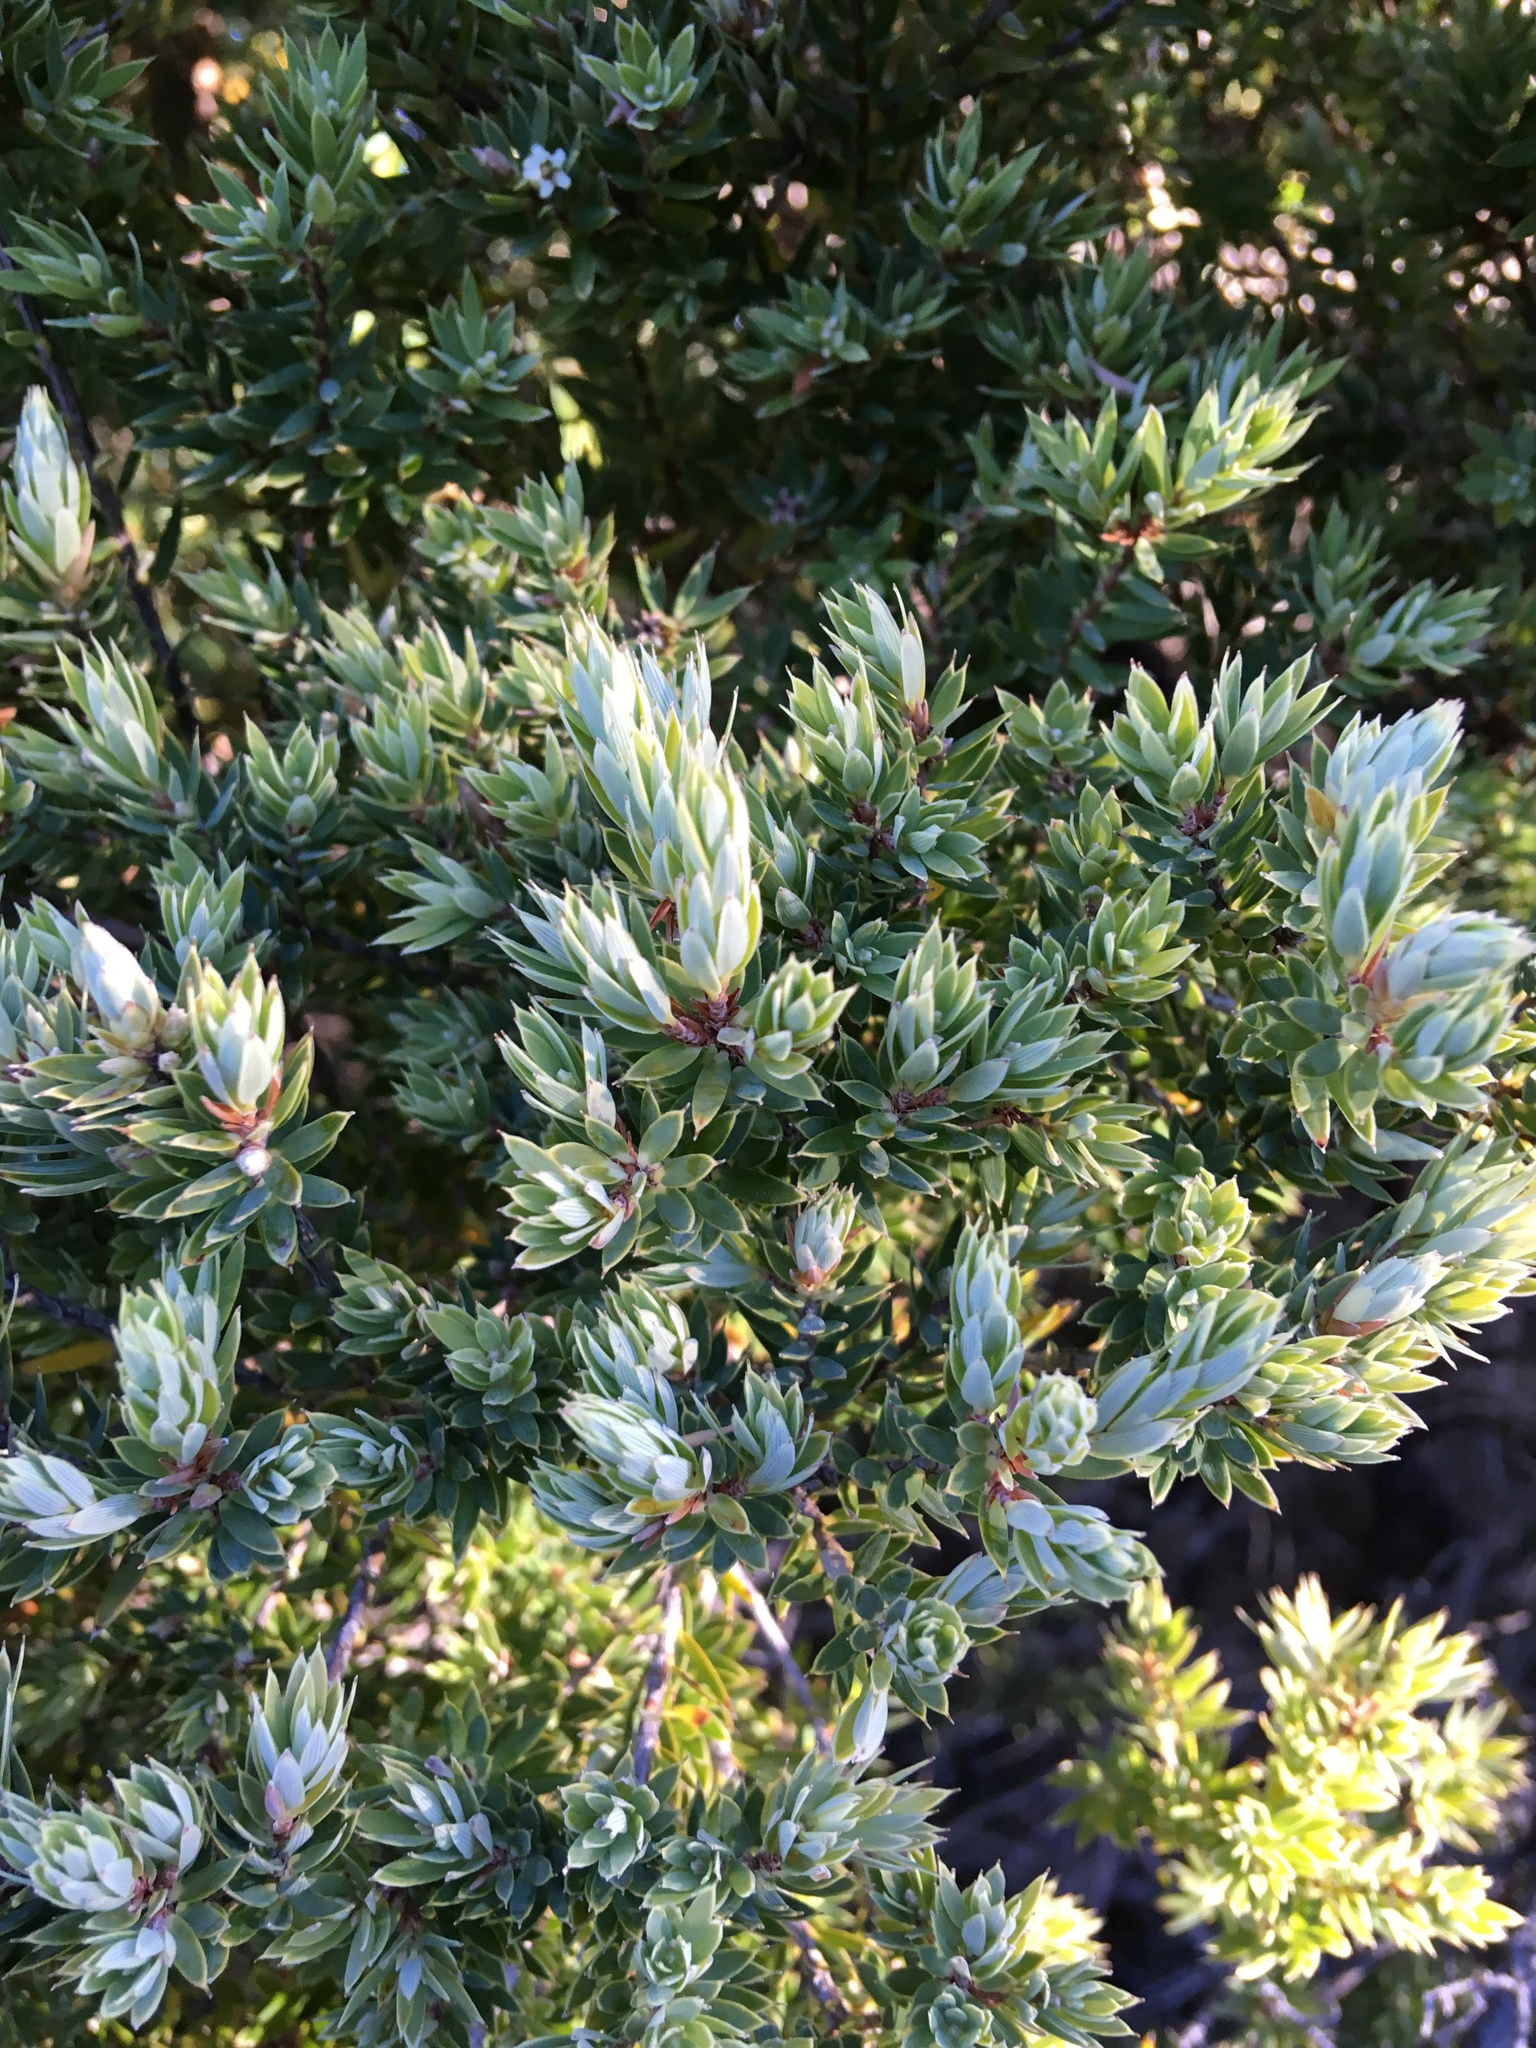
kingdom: Plantae
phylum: Tracheophyta
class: Magnoliopsida
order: Ericales
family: Ericaceae
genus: Leptecophylla
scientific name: Leptecophylla tameiameiae
